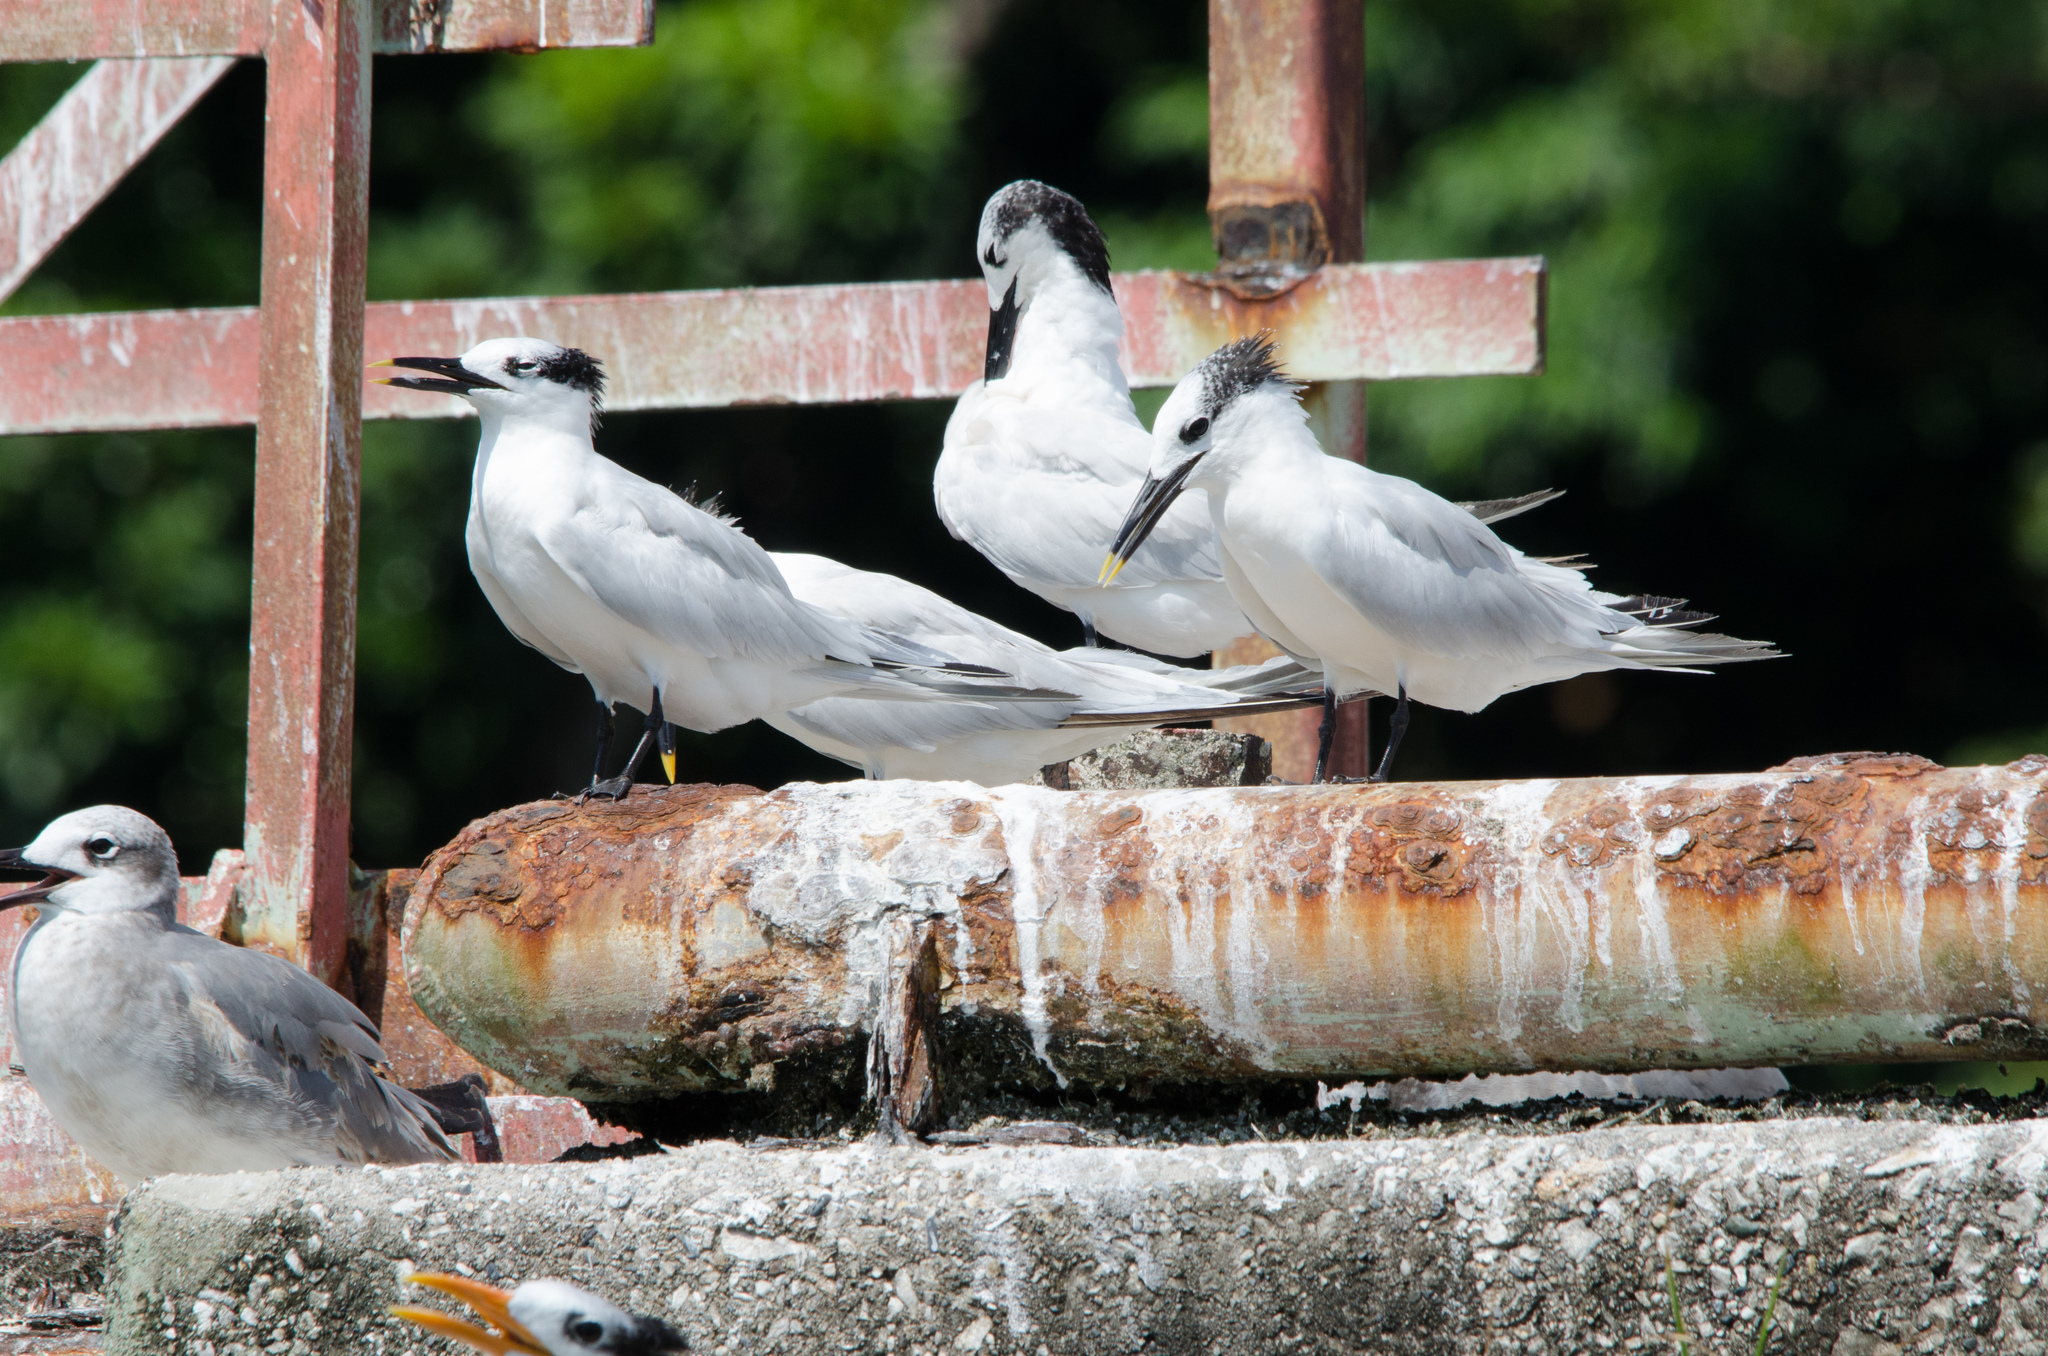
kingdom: Animalia
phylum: Chordata
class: Aves
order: Charadriiformes
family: Laridae
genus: Thalasseus
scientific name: Thalasseus sandvicensis
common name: Sandwich tern
